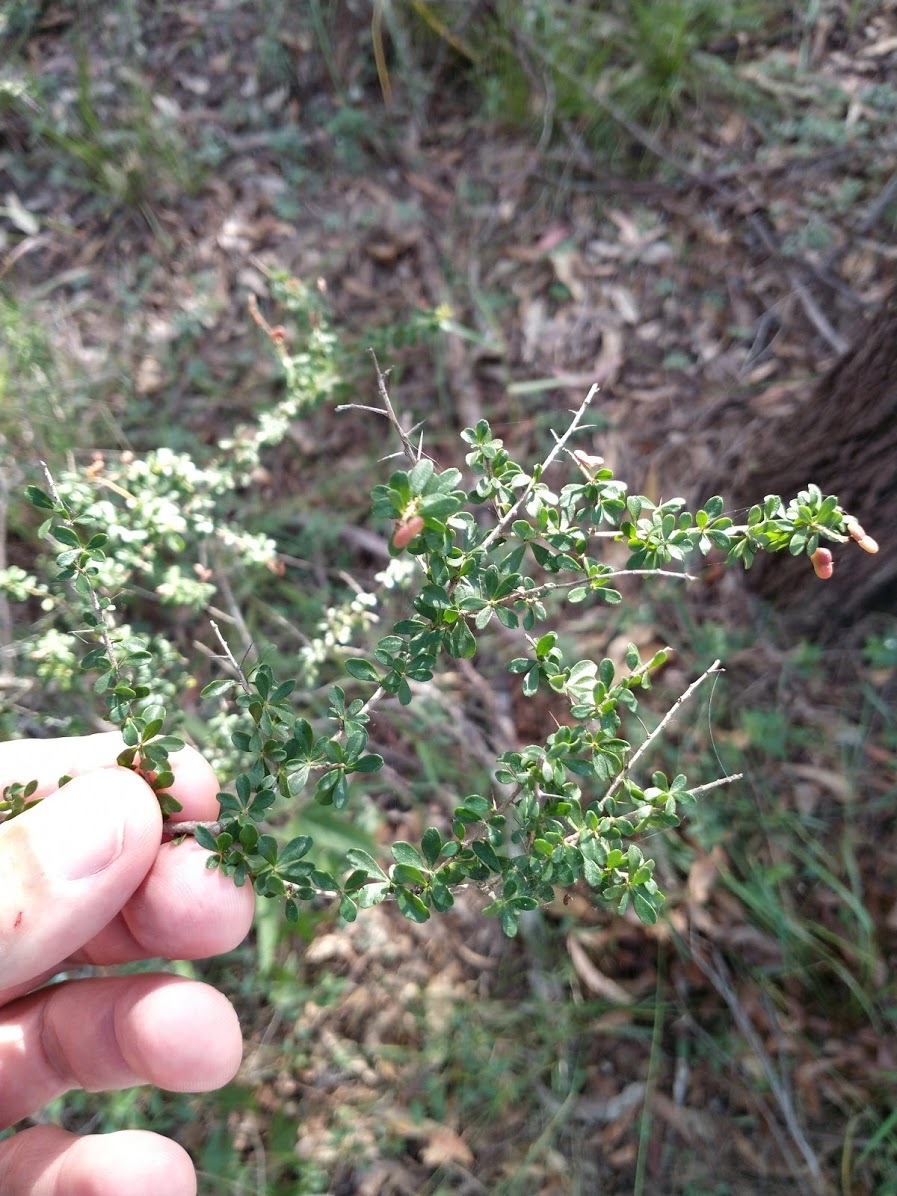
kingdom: Plantae
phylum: Tracheophyta
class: Magnoliopsida
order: Apiales
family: Pittosporaceae
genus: Bursaria
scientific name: Bursaria spinosa
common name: Australian blackthorn
